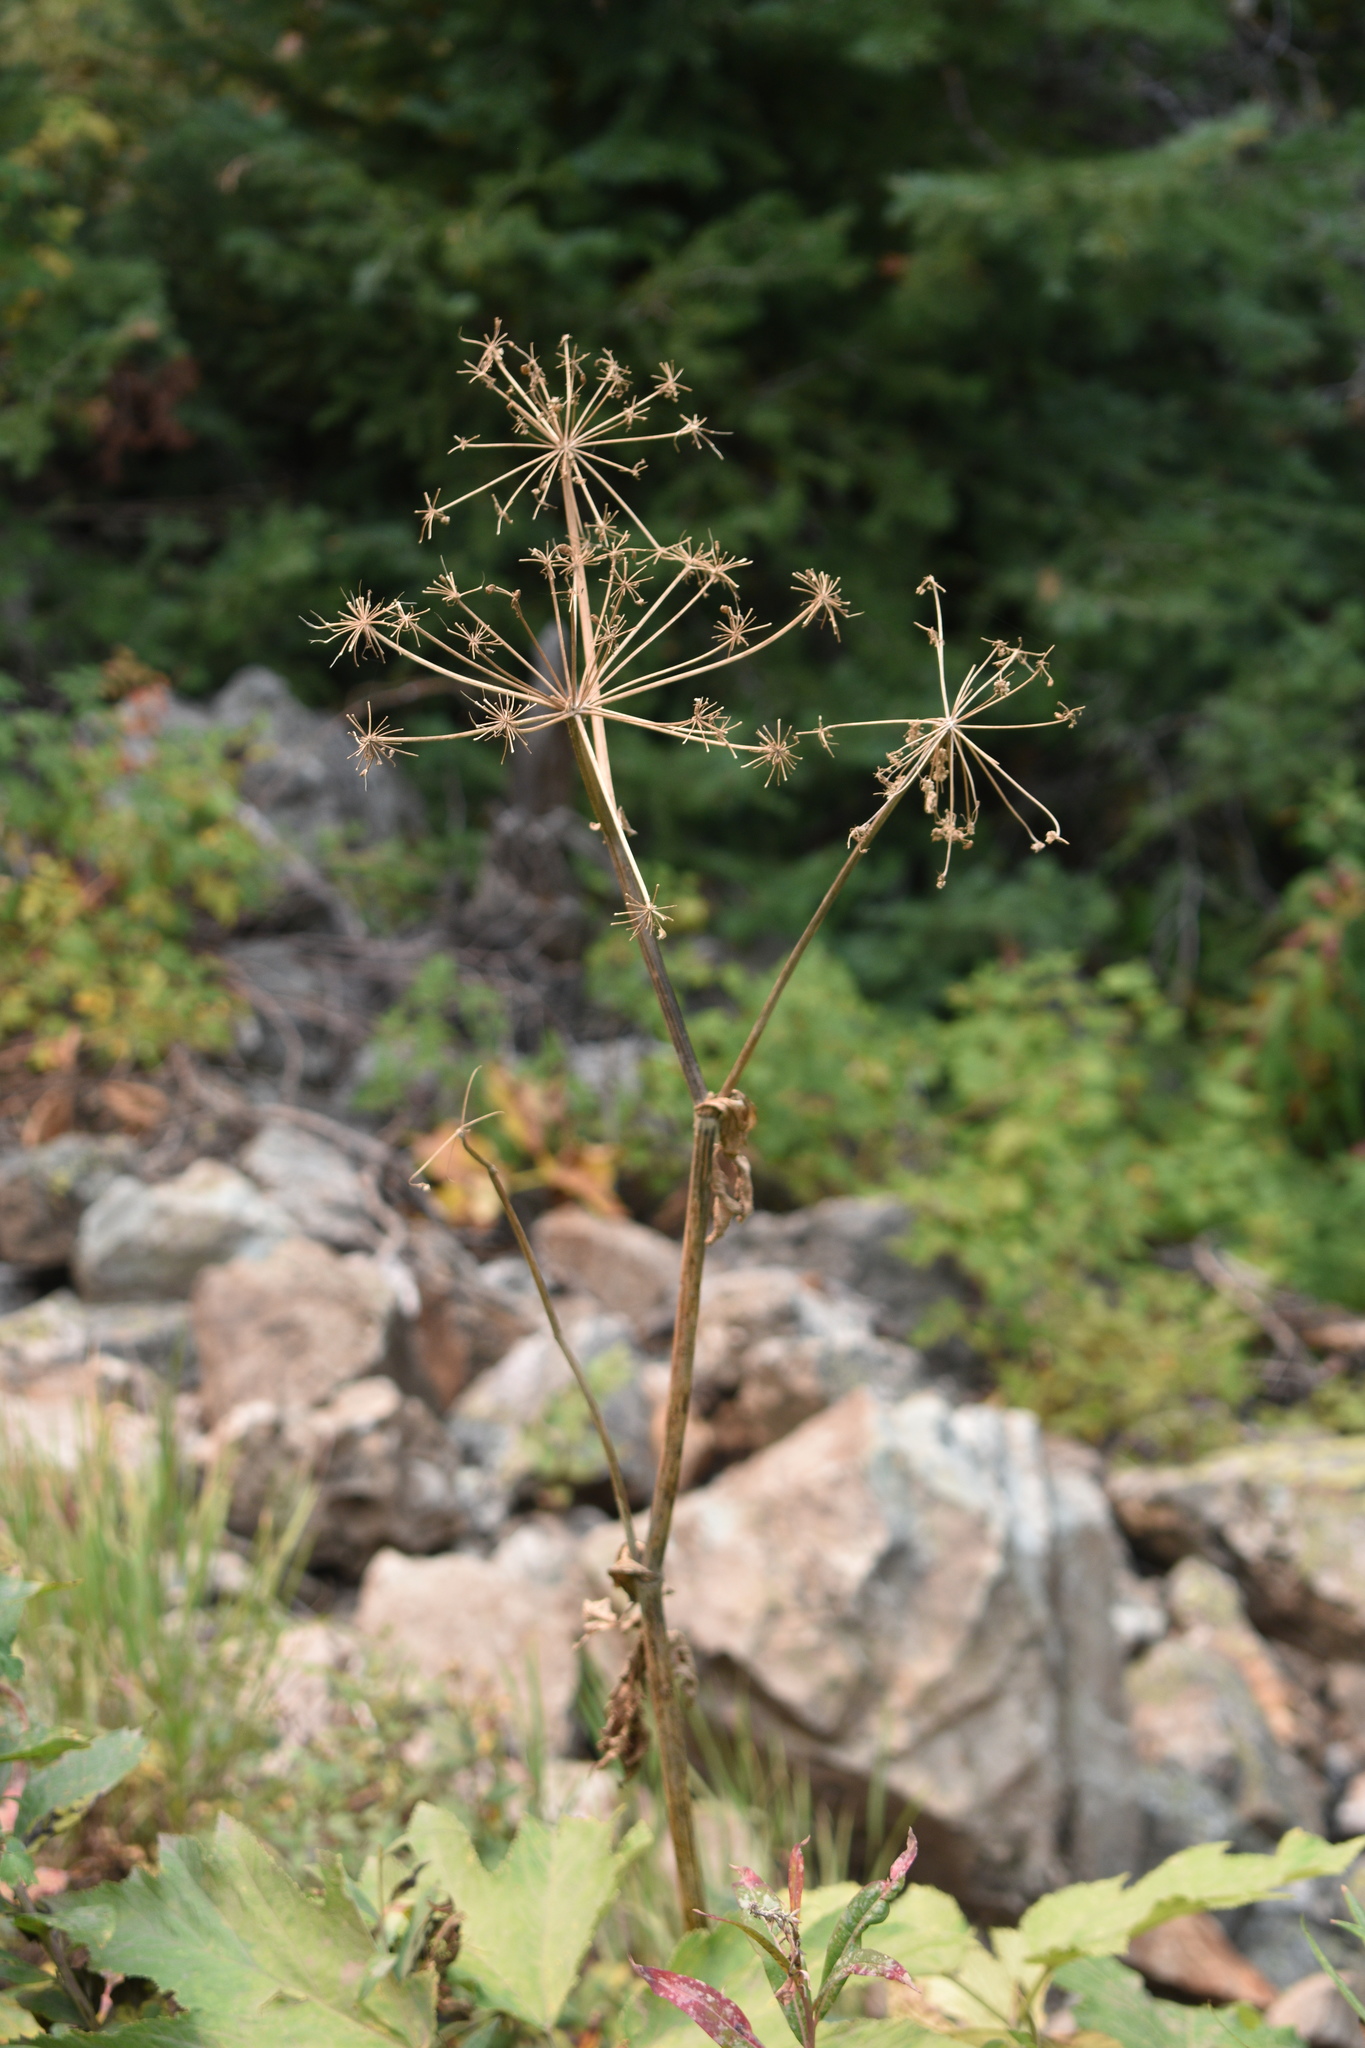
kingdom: Plantae
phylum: Tracheophyta
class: Magnoliopsida
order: Apiales
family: Apiaceae
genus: Heracleum
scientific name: Heracleum maximum
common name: American cow parsnip
